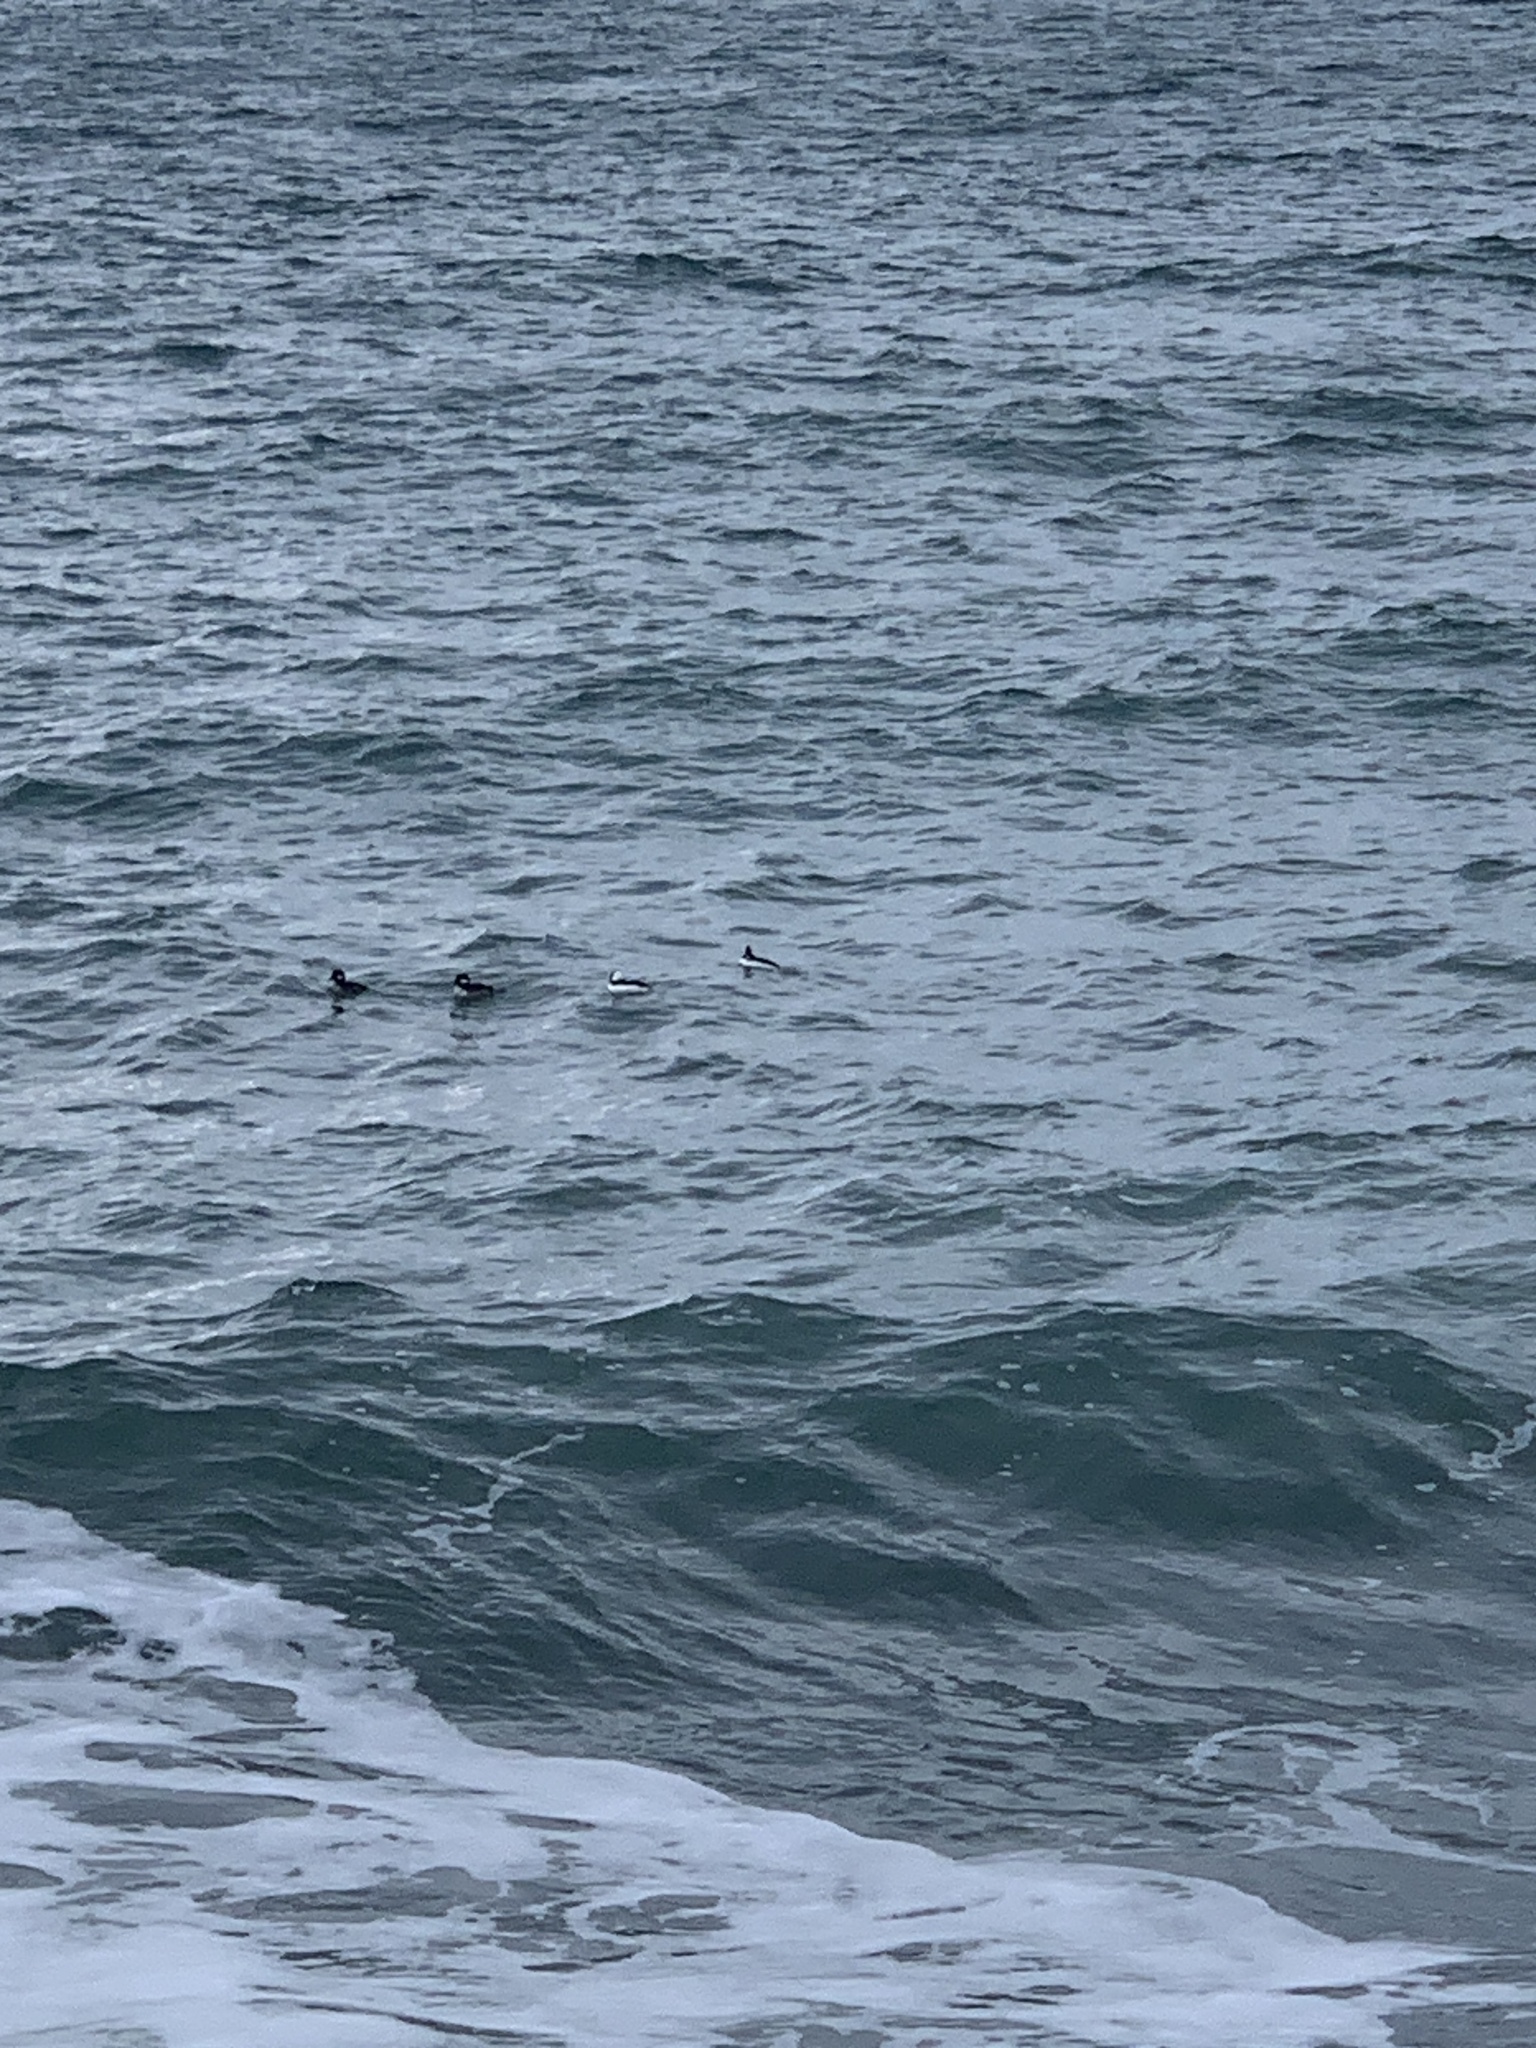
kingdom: Animalia
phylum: Chordata
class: Aves
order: Anseriformes
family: Anatidae
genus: Bucephala
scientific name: Bucephala albeola
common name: Bufflehead
